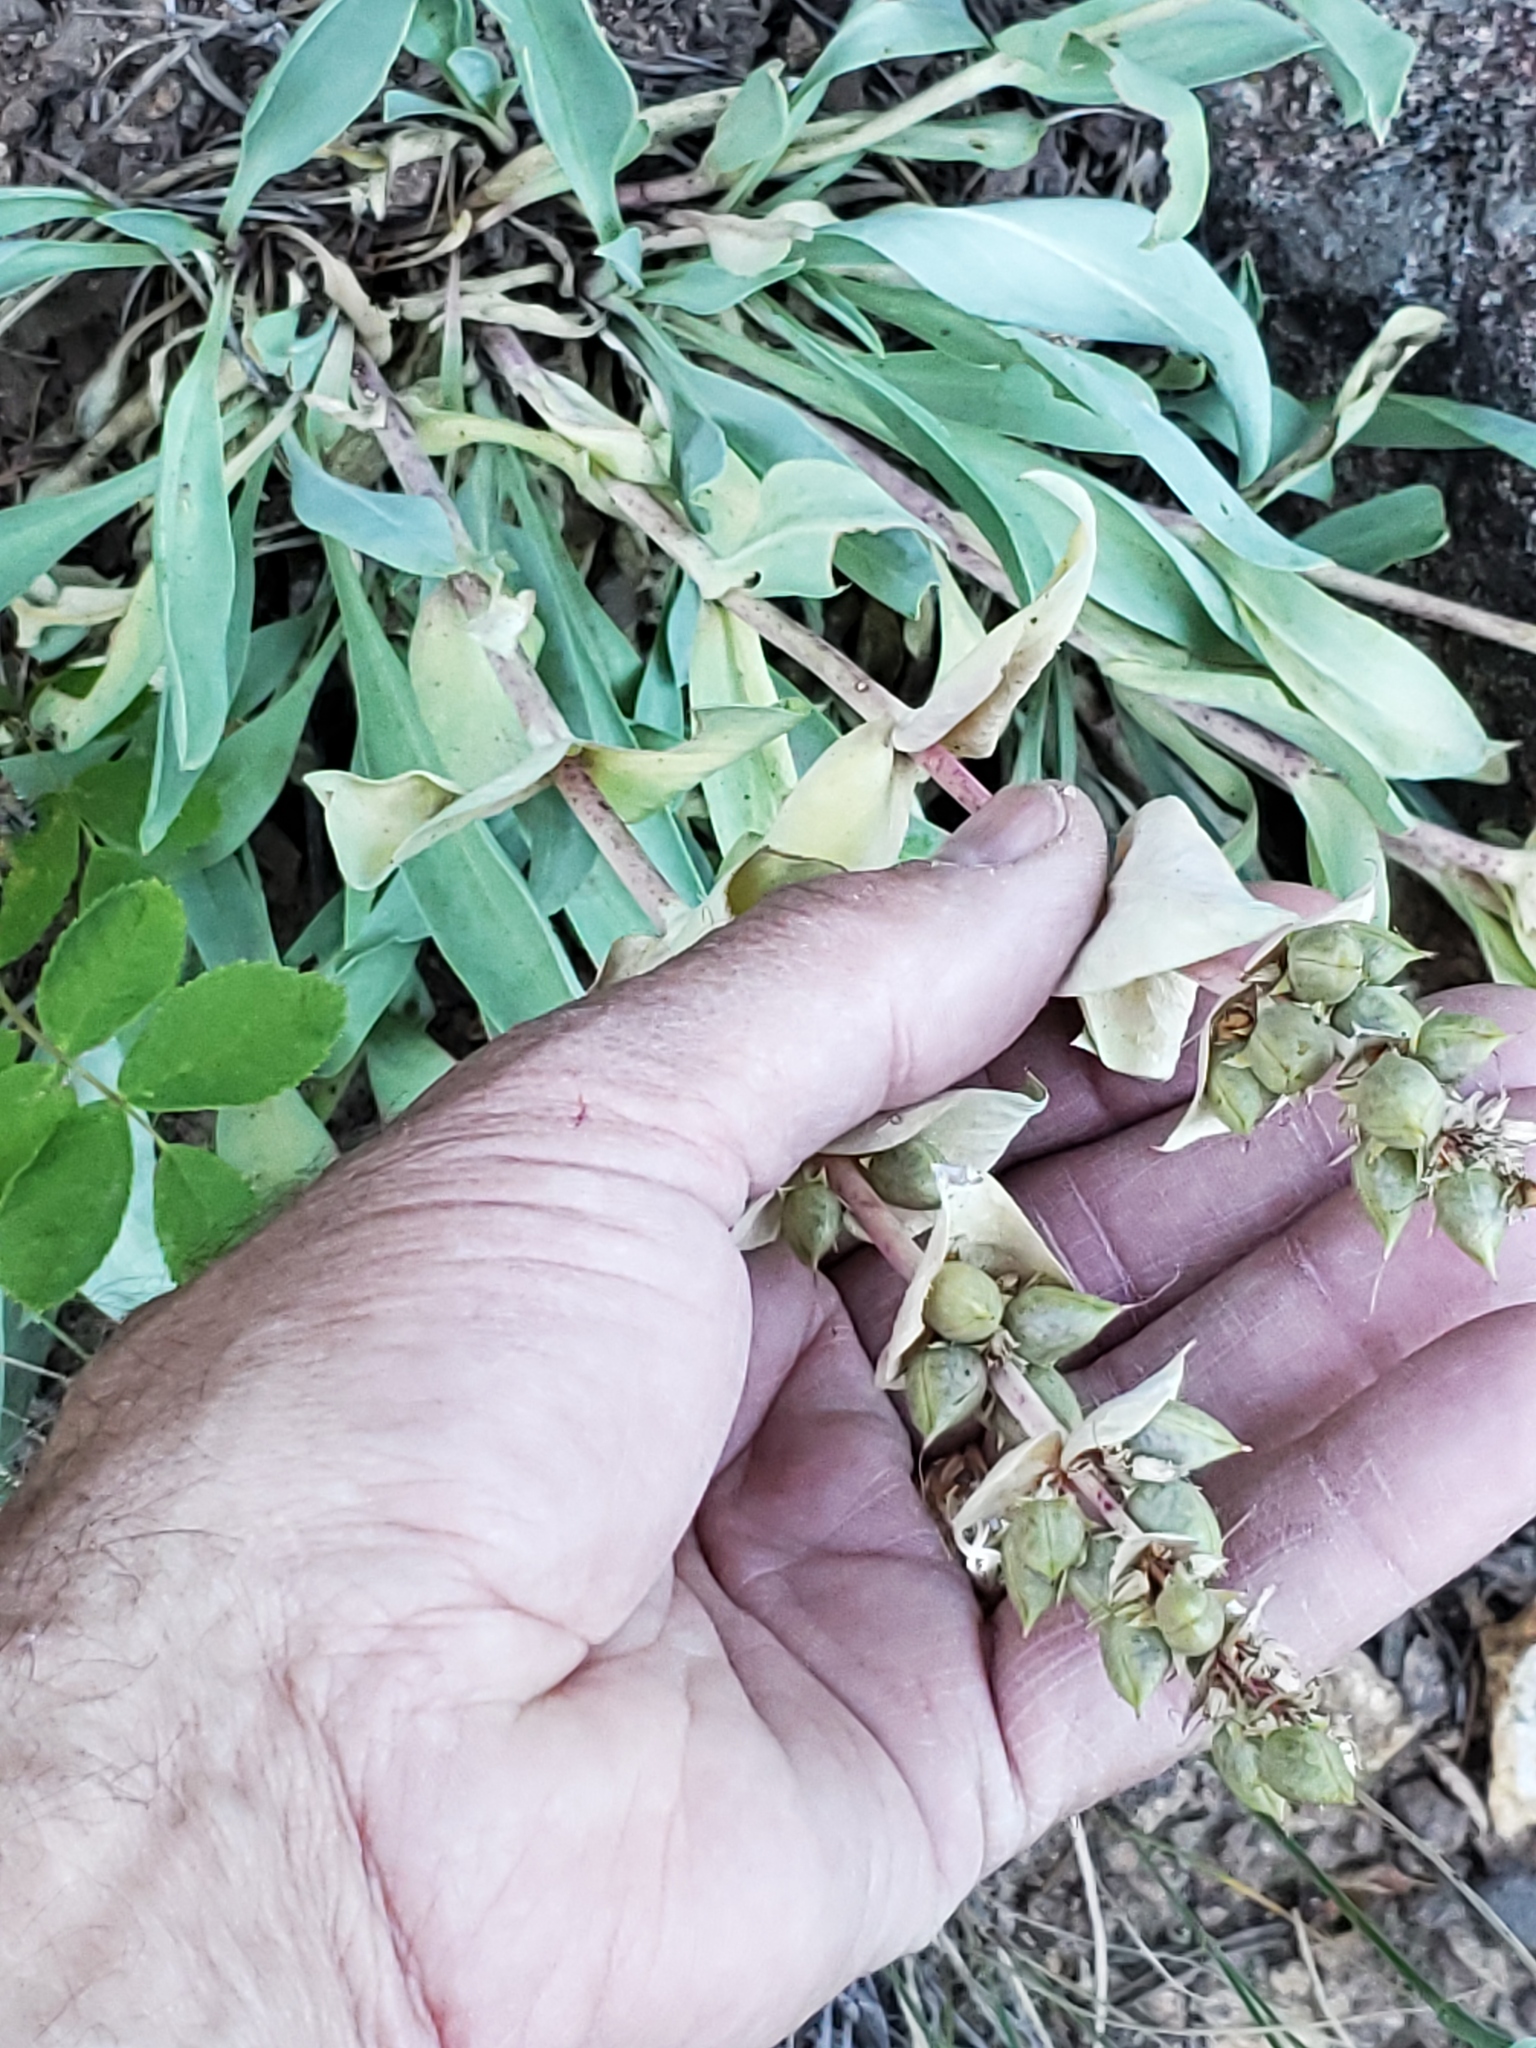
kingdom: Plantae
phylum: Tracheophyta
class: Magnoliopsida
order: Lamiales
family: Plantaginaceae
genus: Penstemon
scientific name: Penstemon nitidus
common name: Shining penstemon
